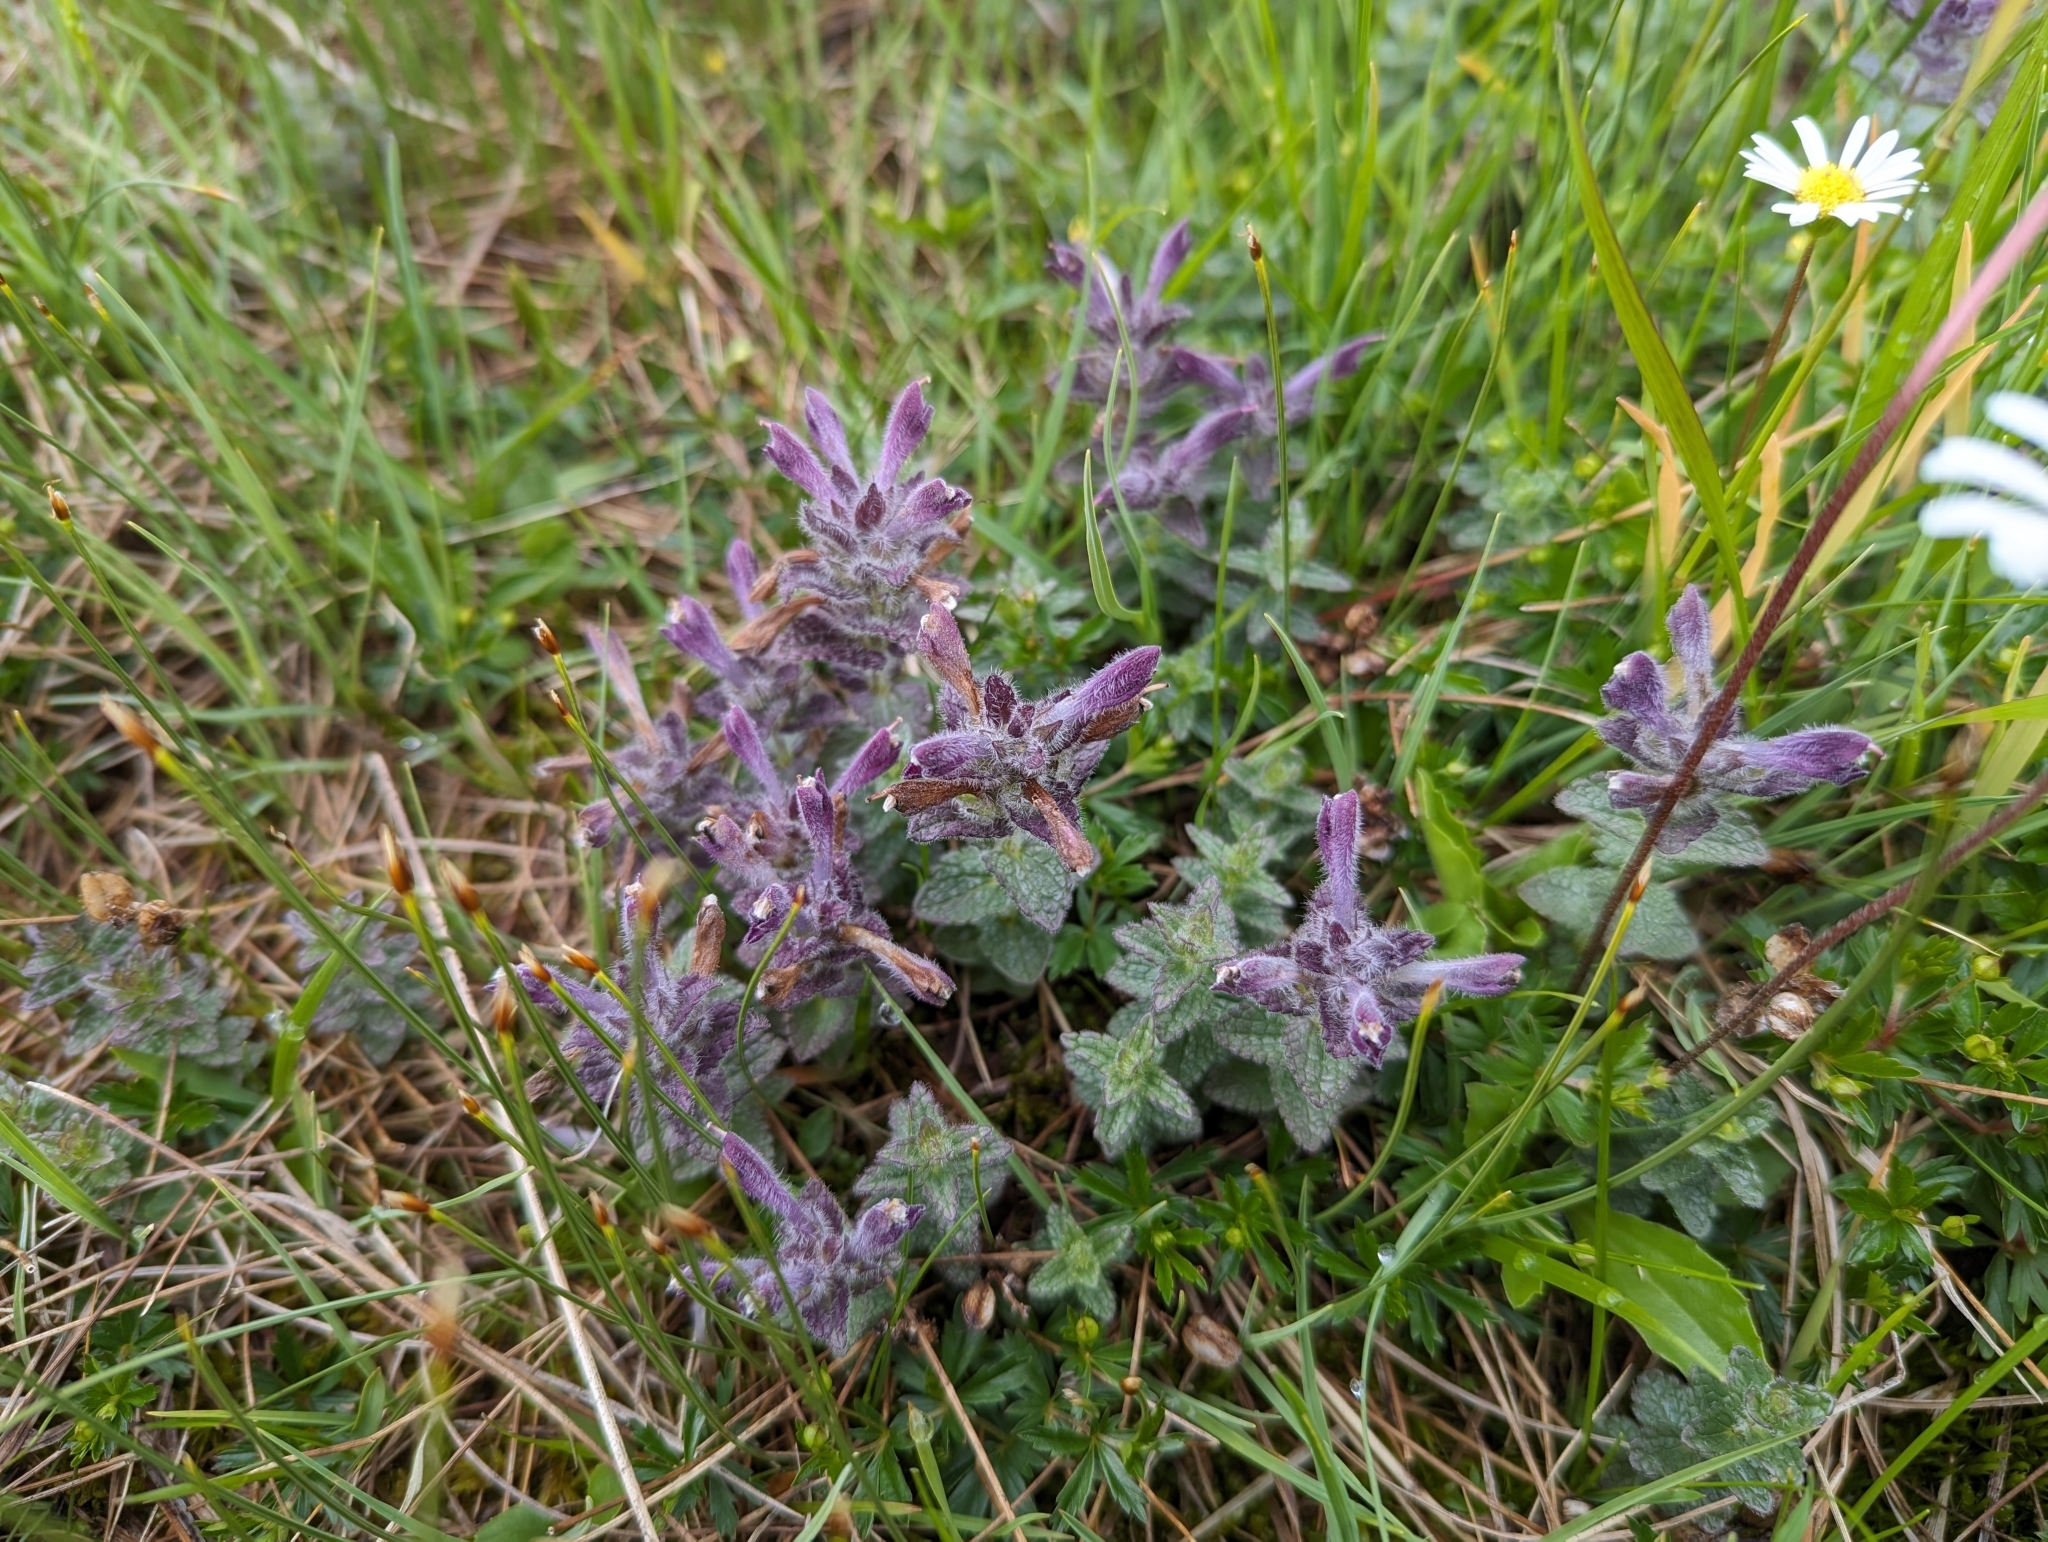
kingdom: Plantae
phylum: Tracheophyta
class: Magnoliopsida
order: Lamiales
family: Orobanchaceae
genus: Bartsia
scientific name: Bartsia alpina
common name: Alpine bartsia
